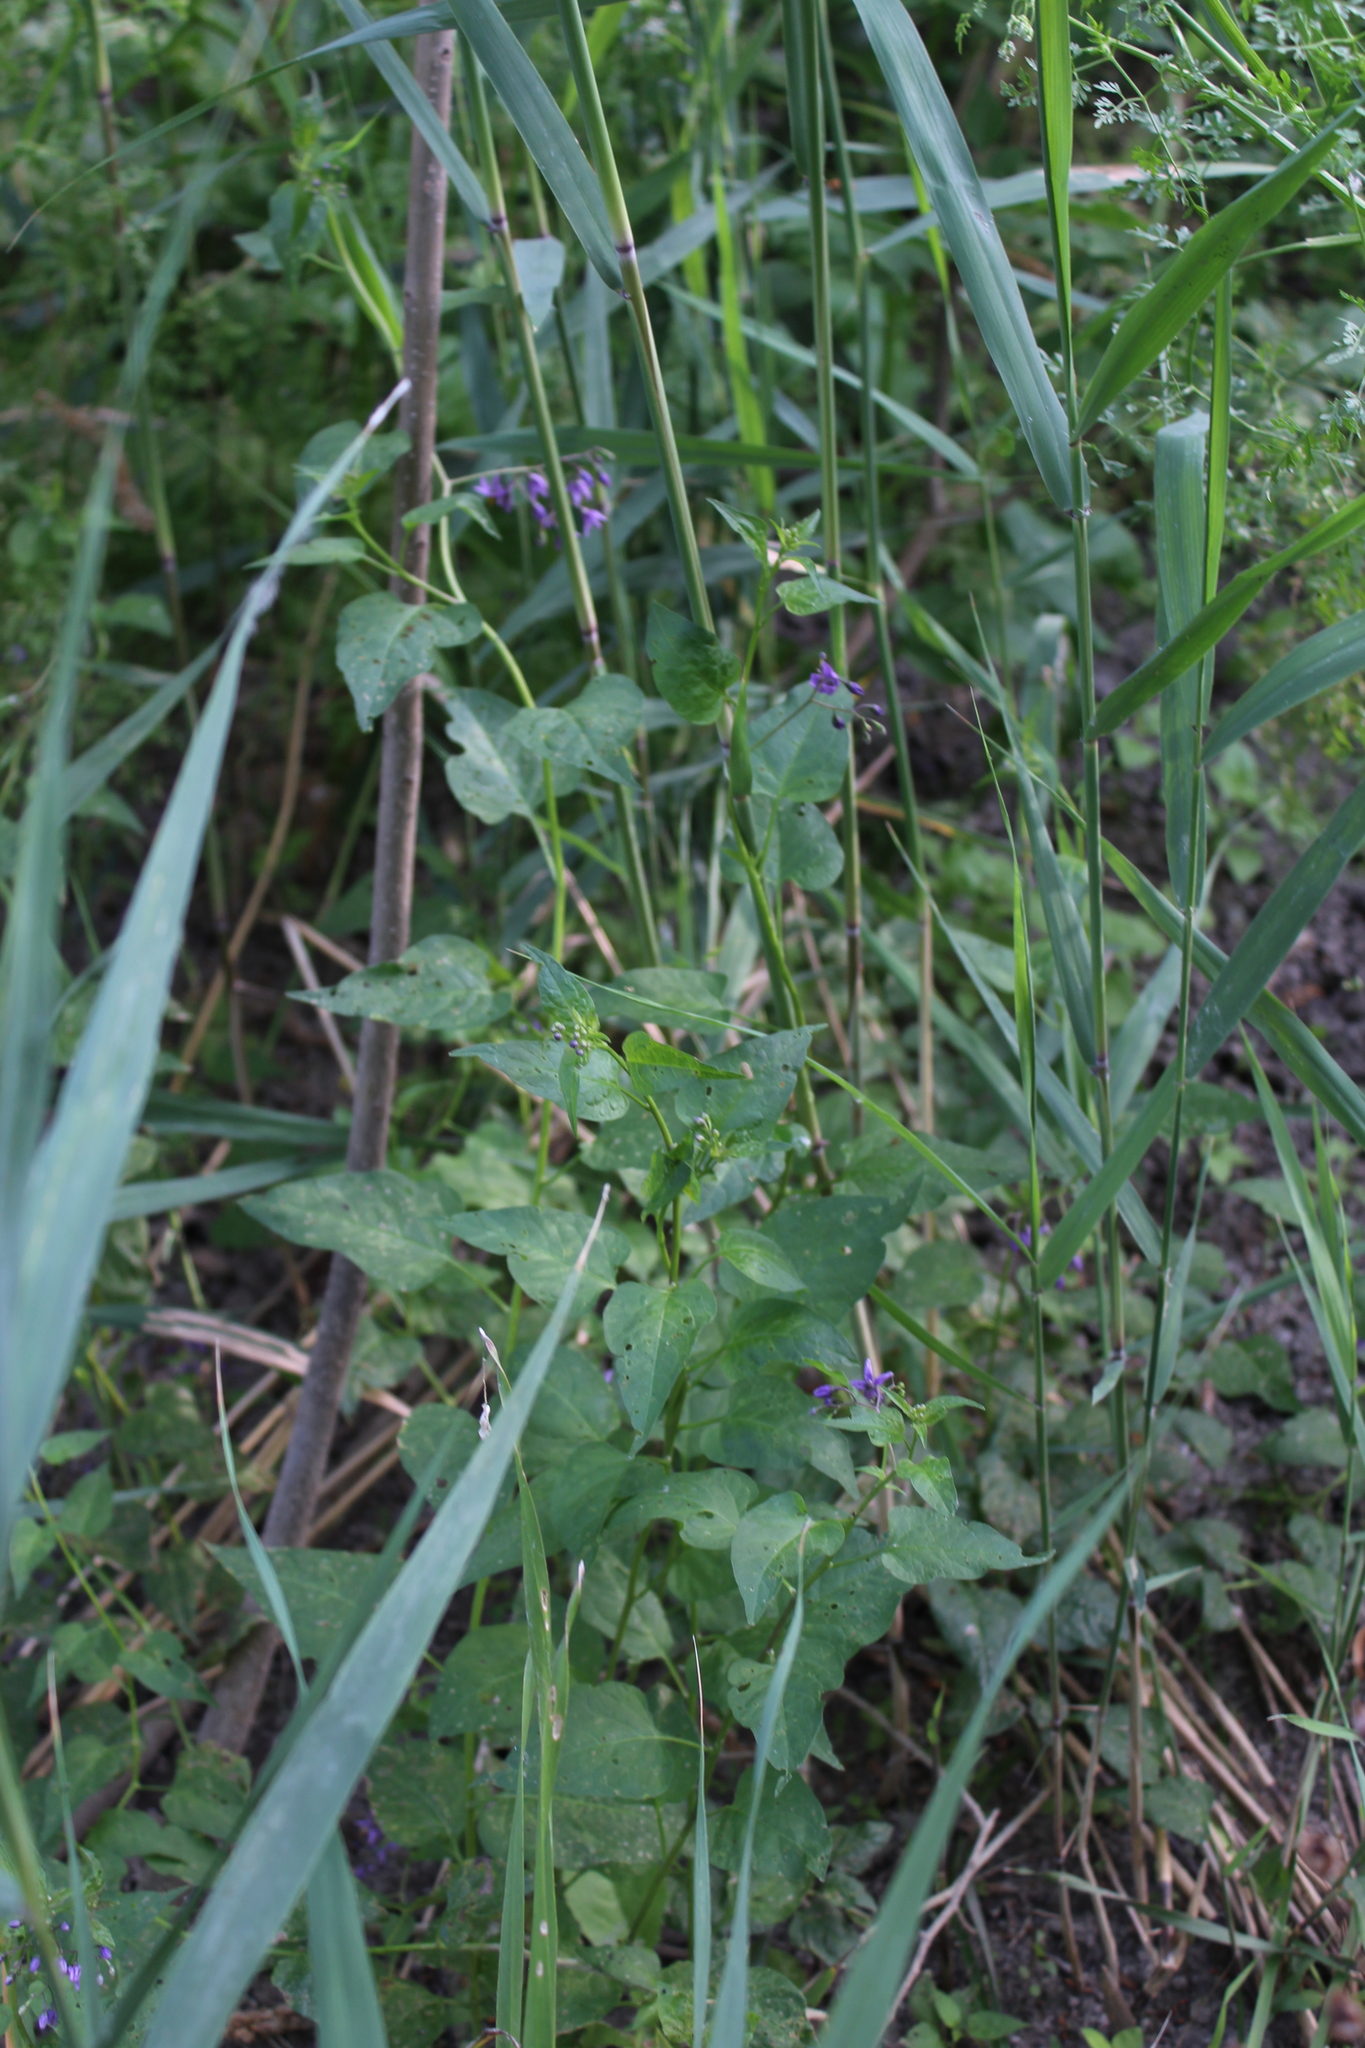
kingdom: Plantae
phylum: Tracheophyta
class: Magnoliopsida
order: Solanales
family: Solanaceae
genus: Solanum
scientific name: Solanum dulcamara
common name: Climbing nightshade
